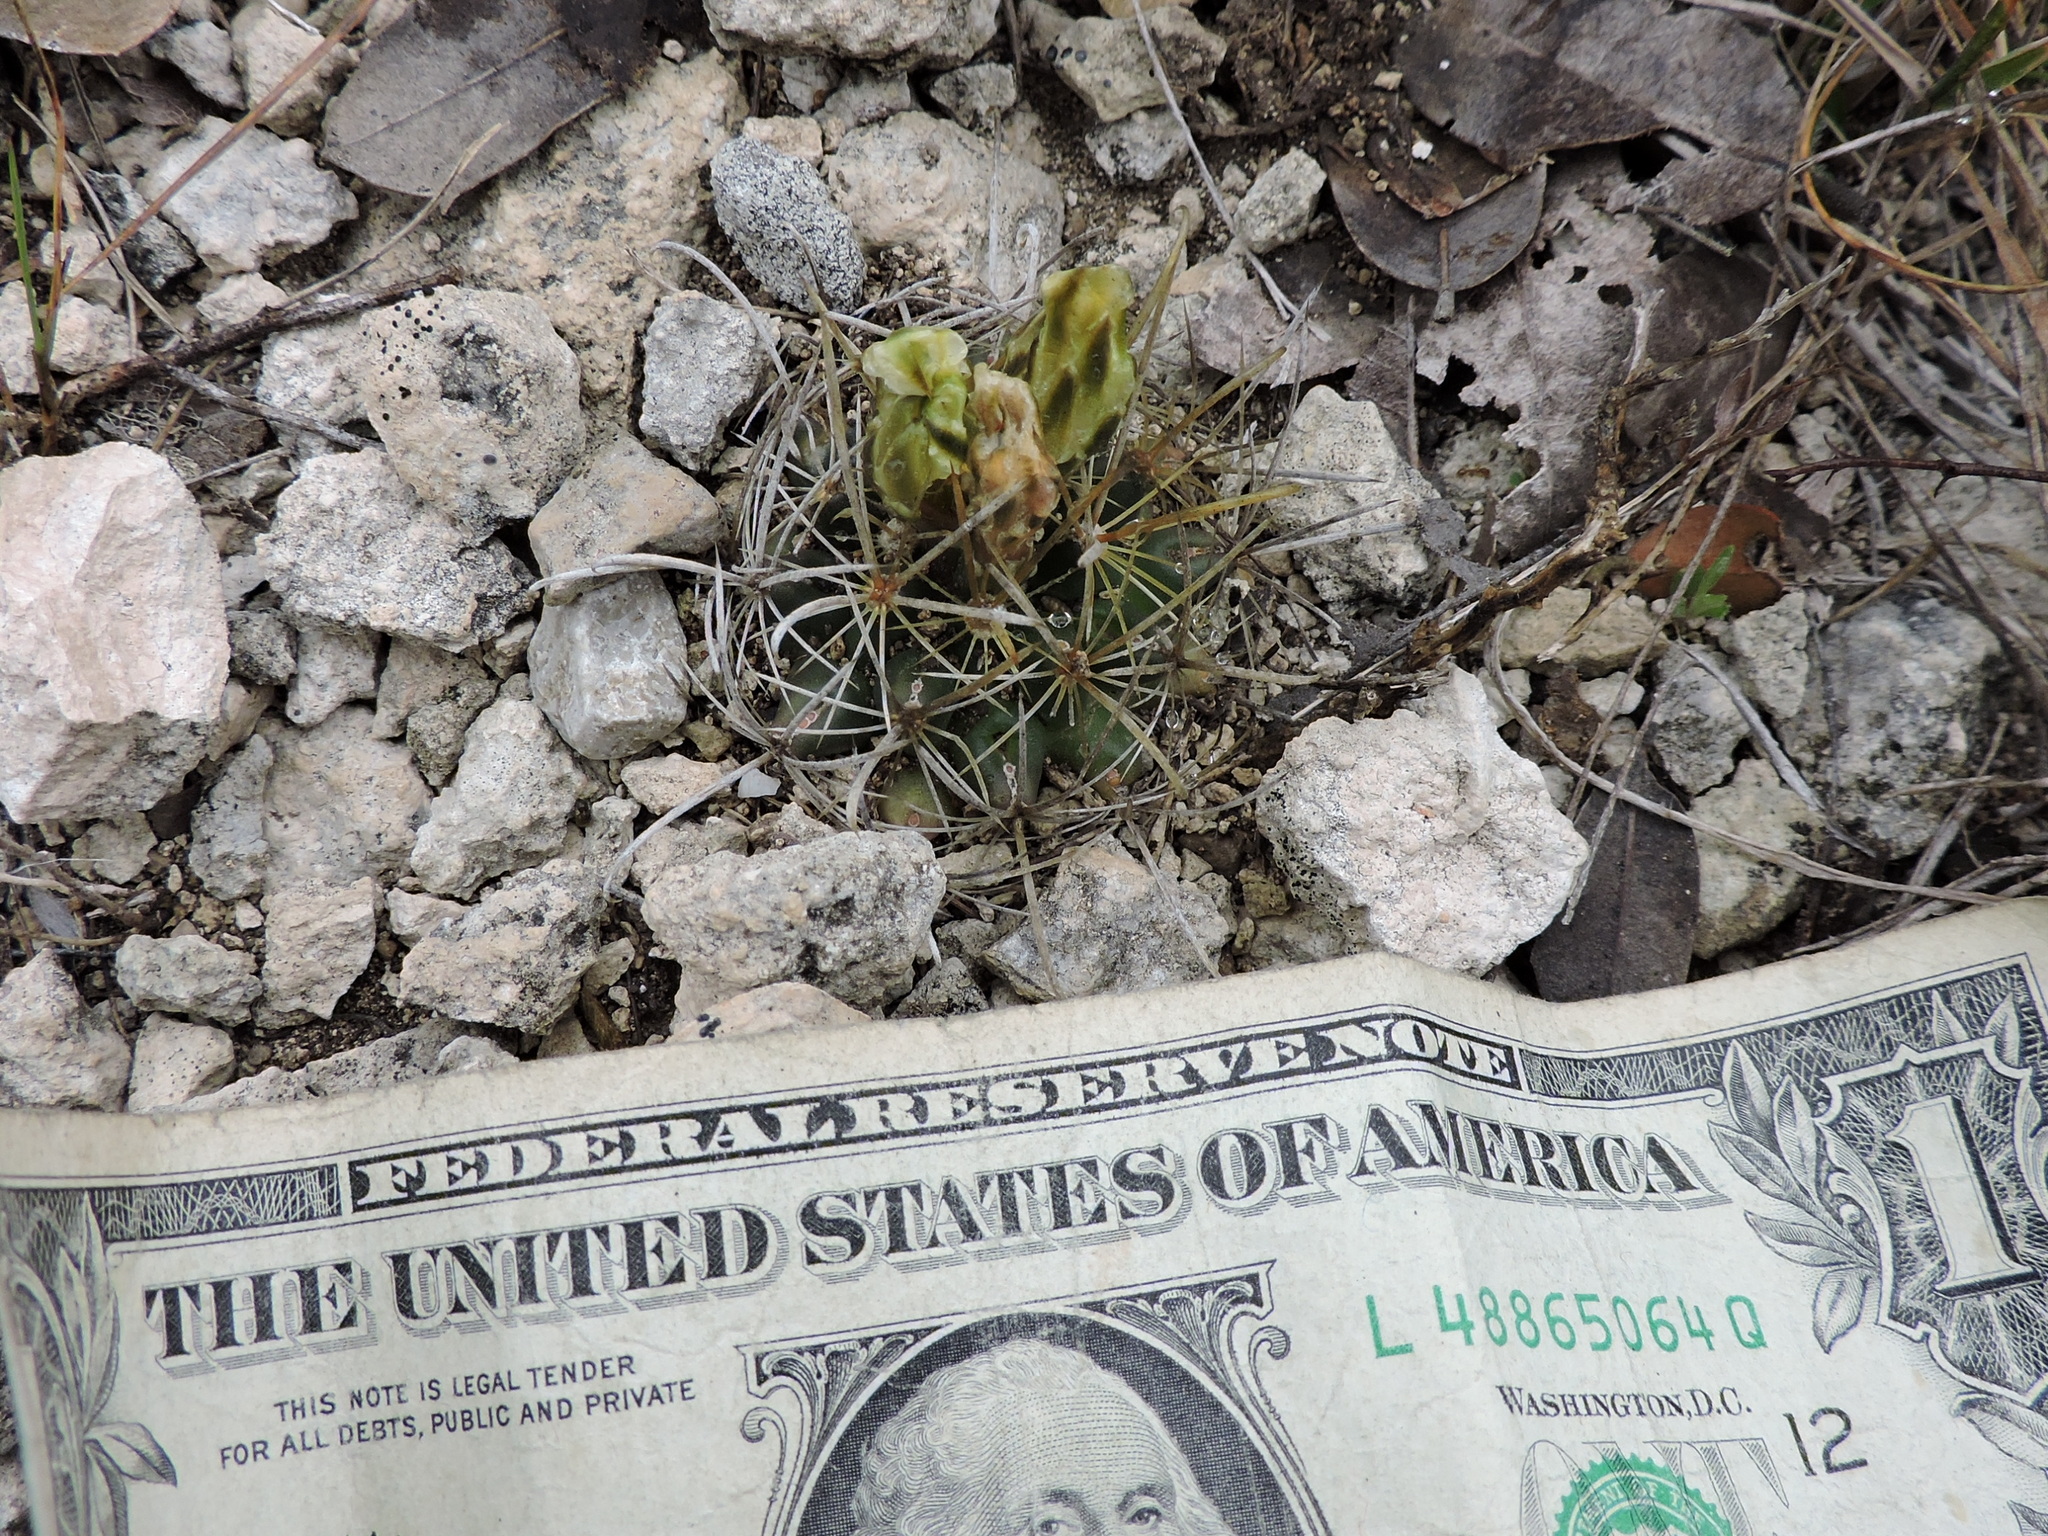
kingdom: Plantae
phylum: Tracheophyta
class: Magnoliopsida
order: Caryophyllales
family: Cactaceae
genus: Sclerocactus
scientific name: Sclerocactus brevihamatus
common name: Engelmann's fishhook cactus
